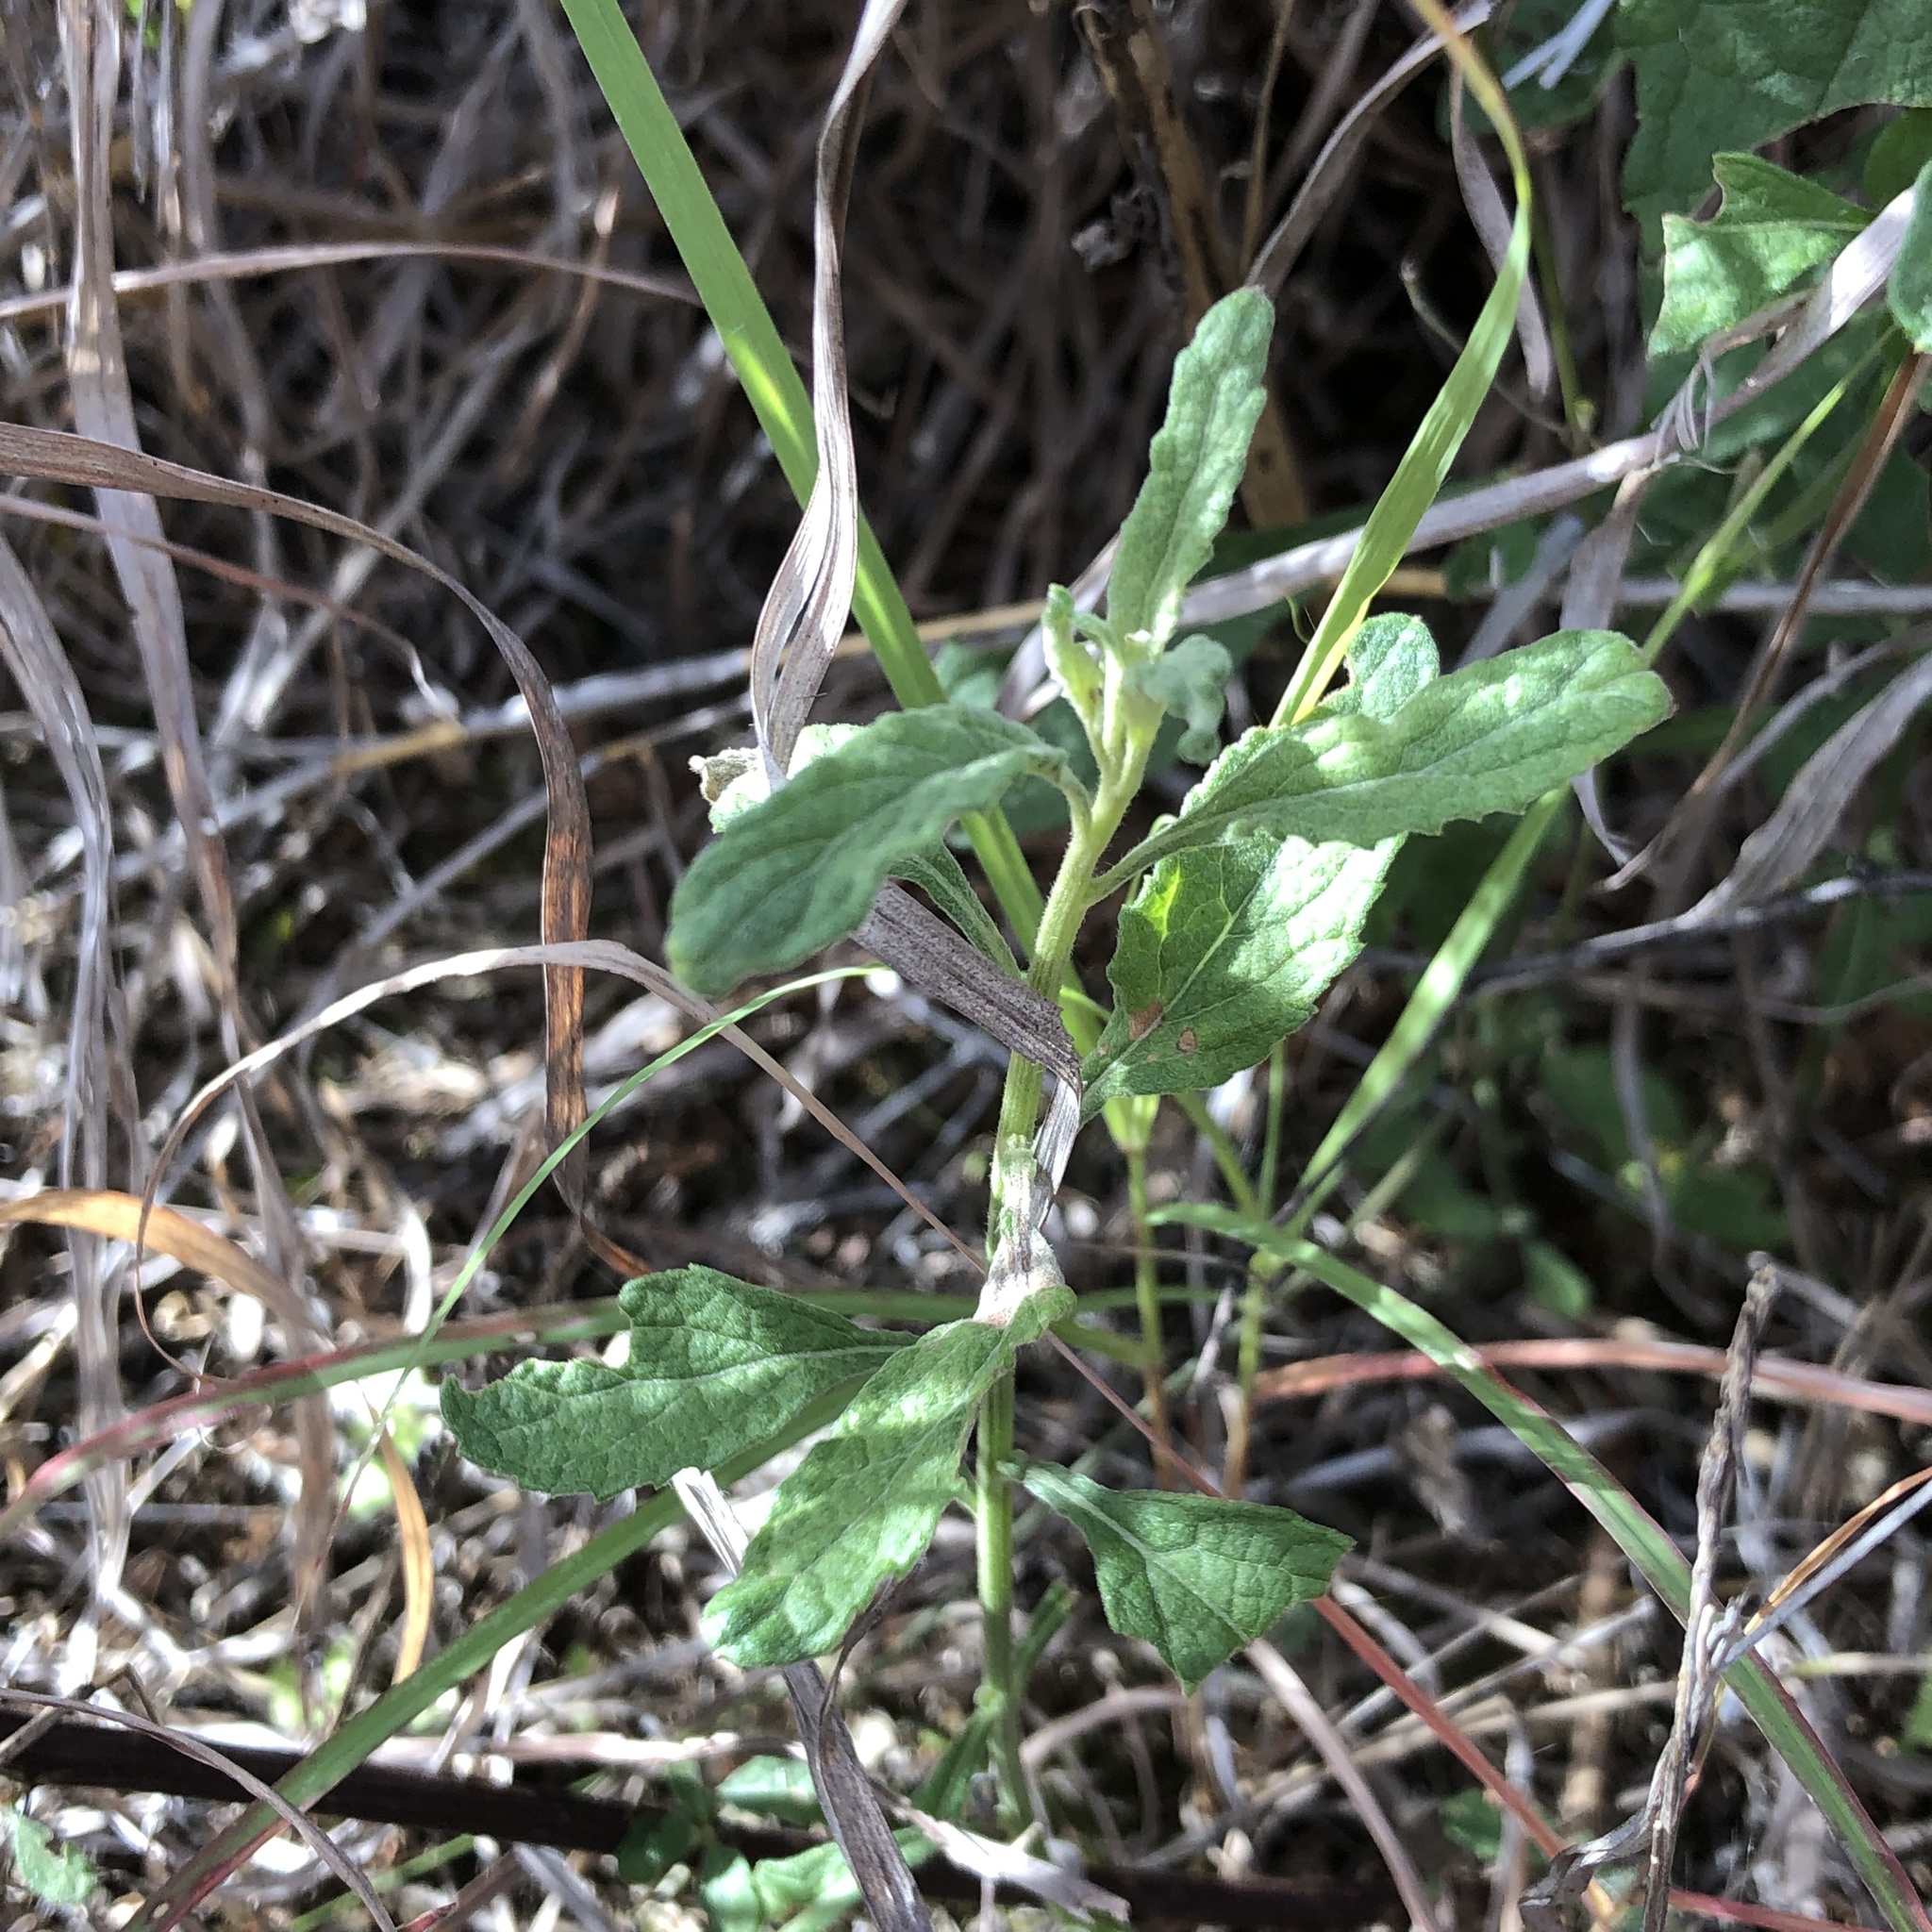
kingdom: Plantae
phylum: Tracheophyta
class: Magnoliopsida
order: Asterales
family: Asteraceae
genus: Cyanthillium
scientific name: Cyanthillium cinereum
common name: Little ironweed
